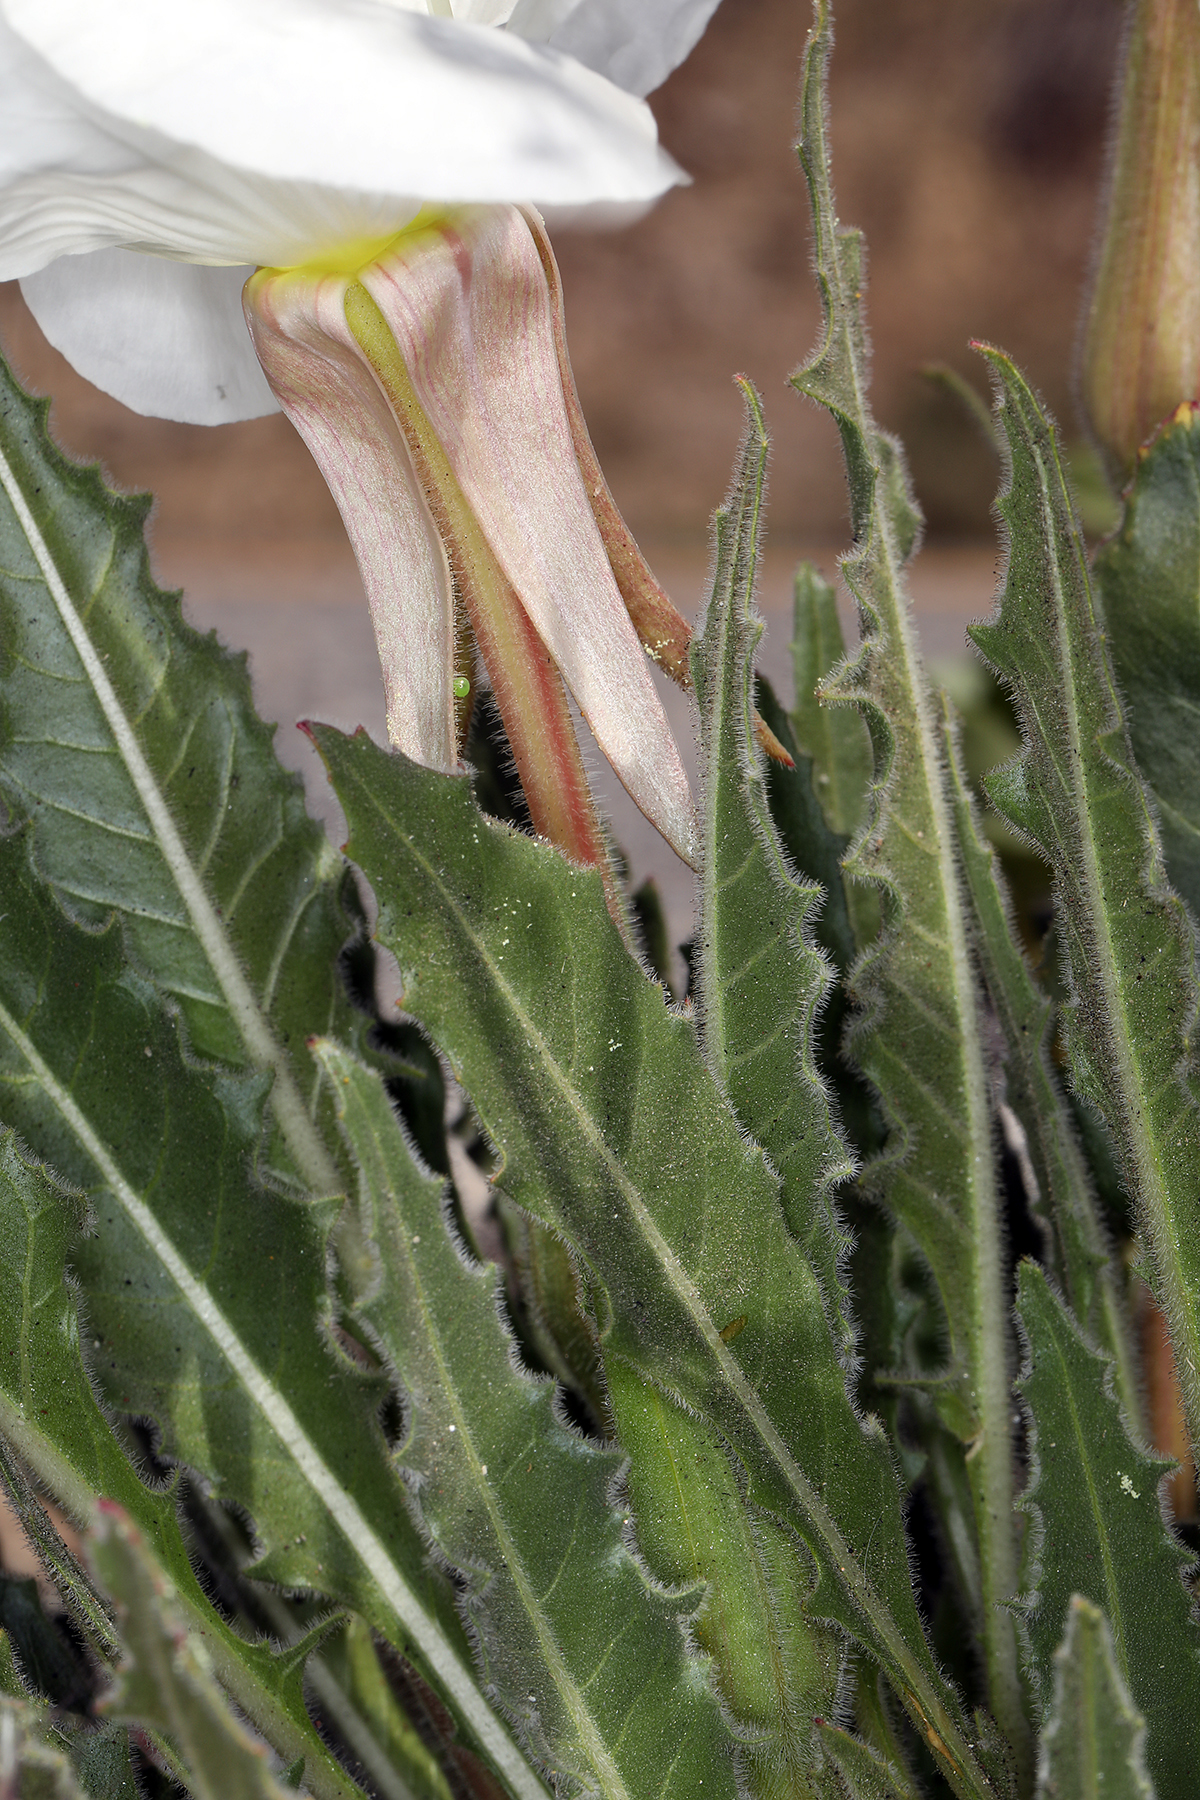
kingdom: Plantae
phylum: Tracheophyta
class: Magnoliopsida
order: Myrtales
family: Onagraceae
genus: Oenothera
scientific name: Oenothera cespitosa
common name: Tufted evening-primrose
